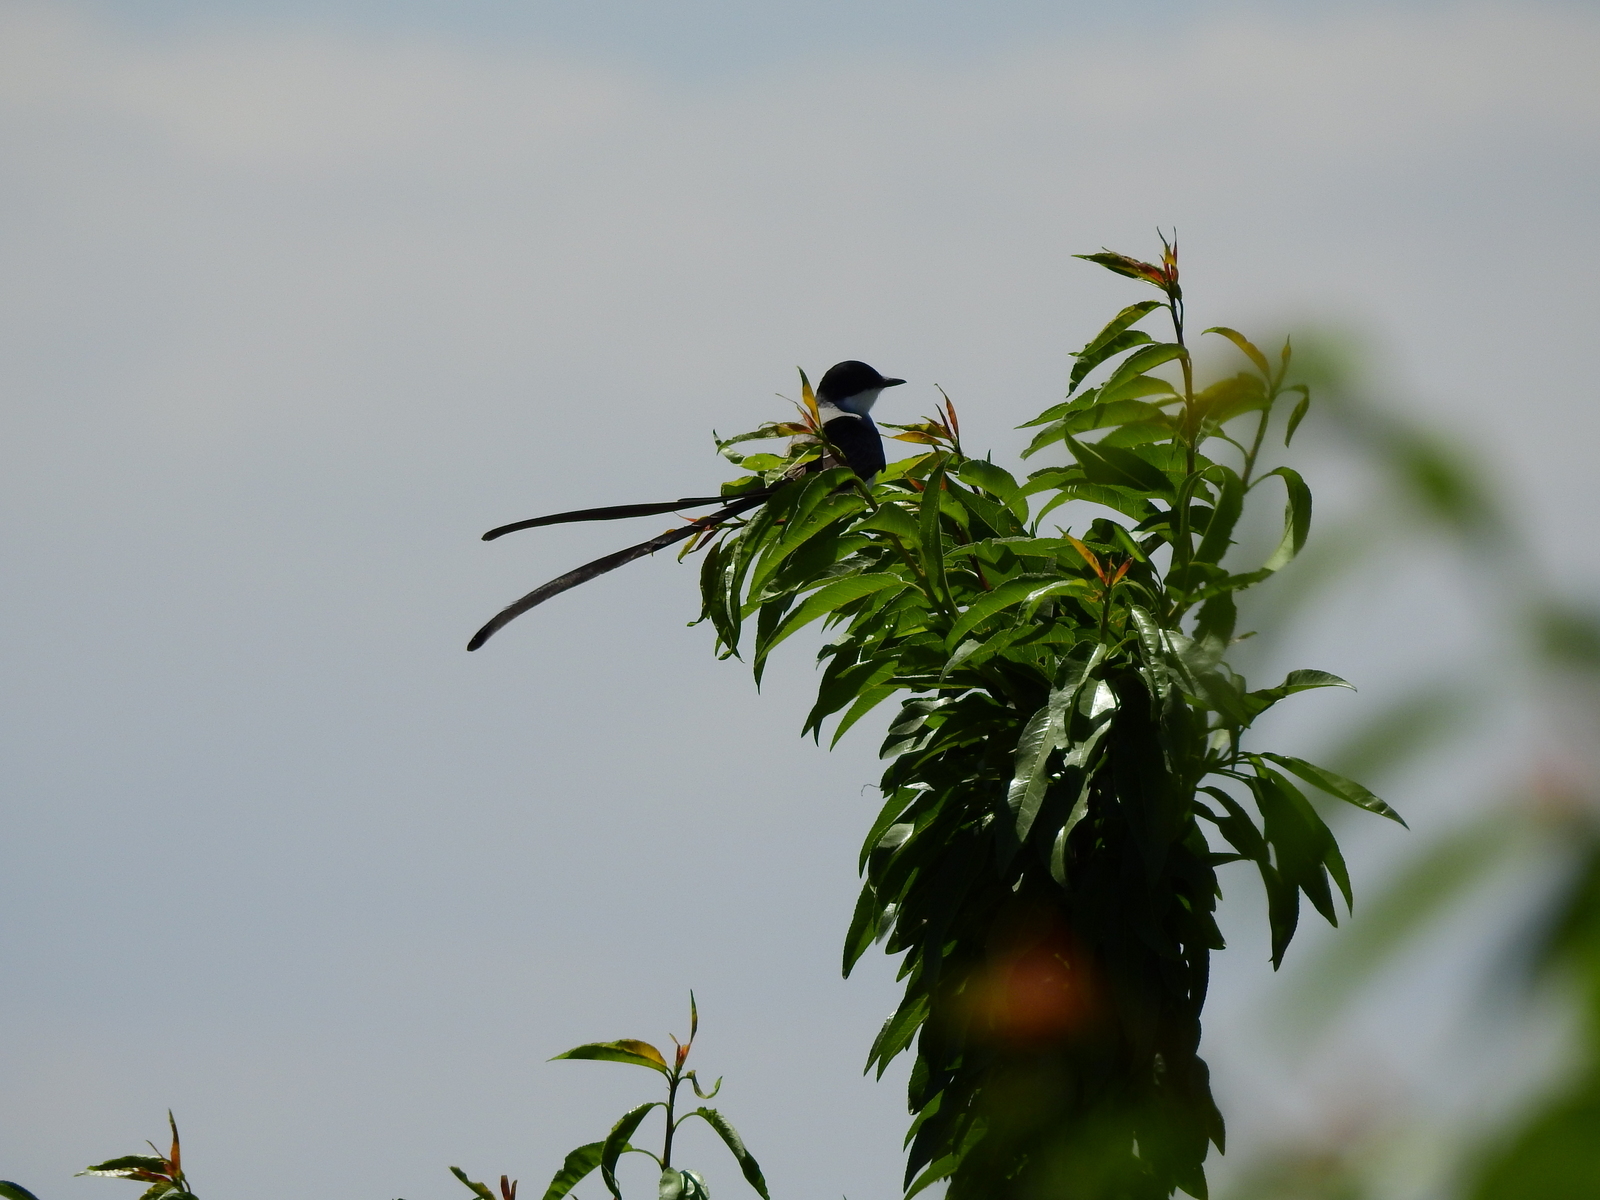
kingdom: Animalia
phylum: Chordata
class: Aves
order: Passeriformes
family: Tyrannidae
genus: Tyrannus
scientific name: Tyrannus savana
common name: Fork-tailed flycatcher
